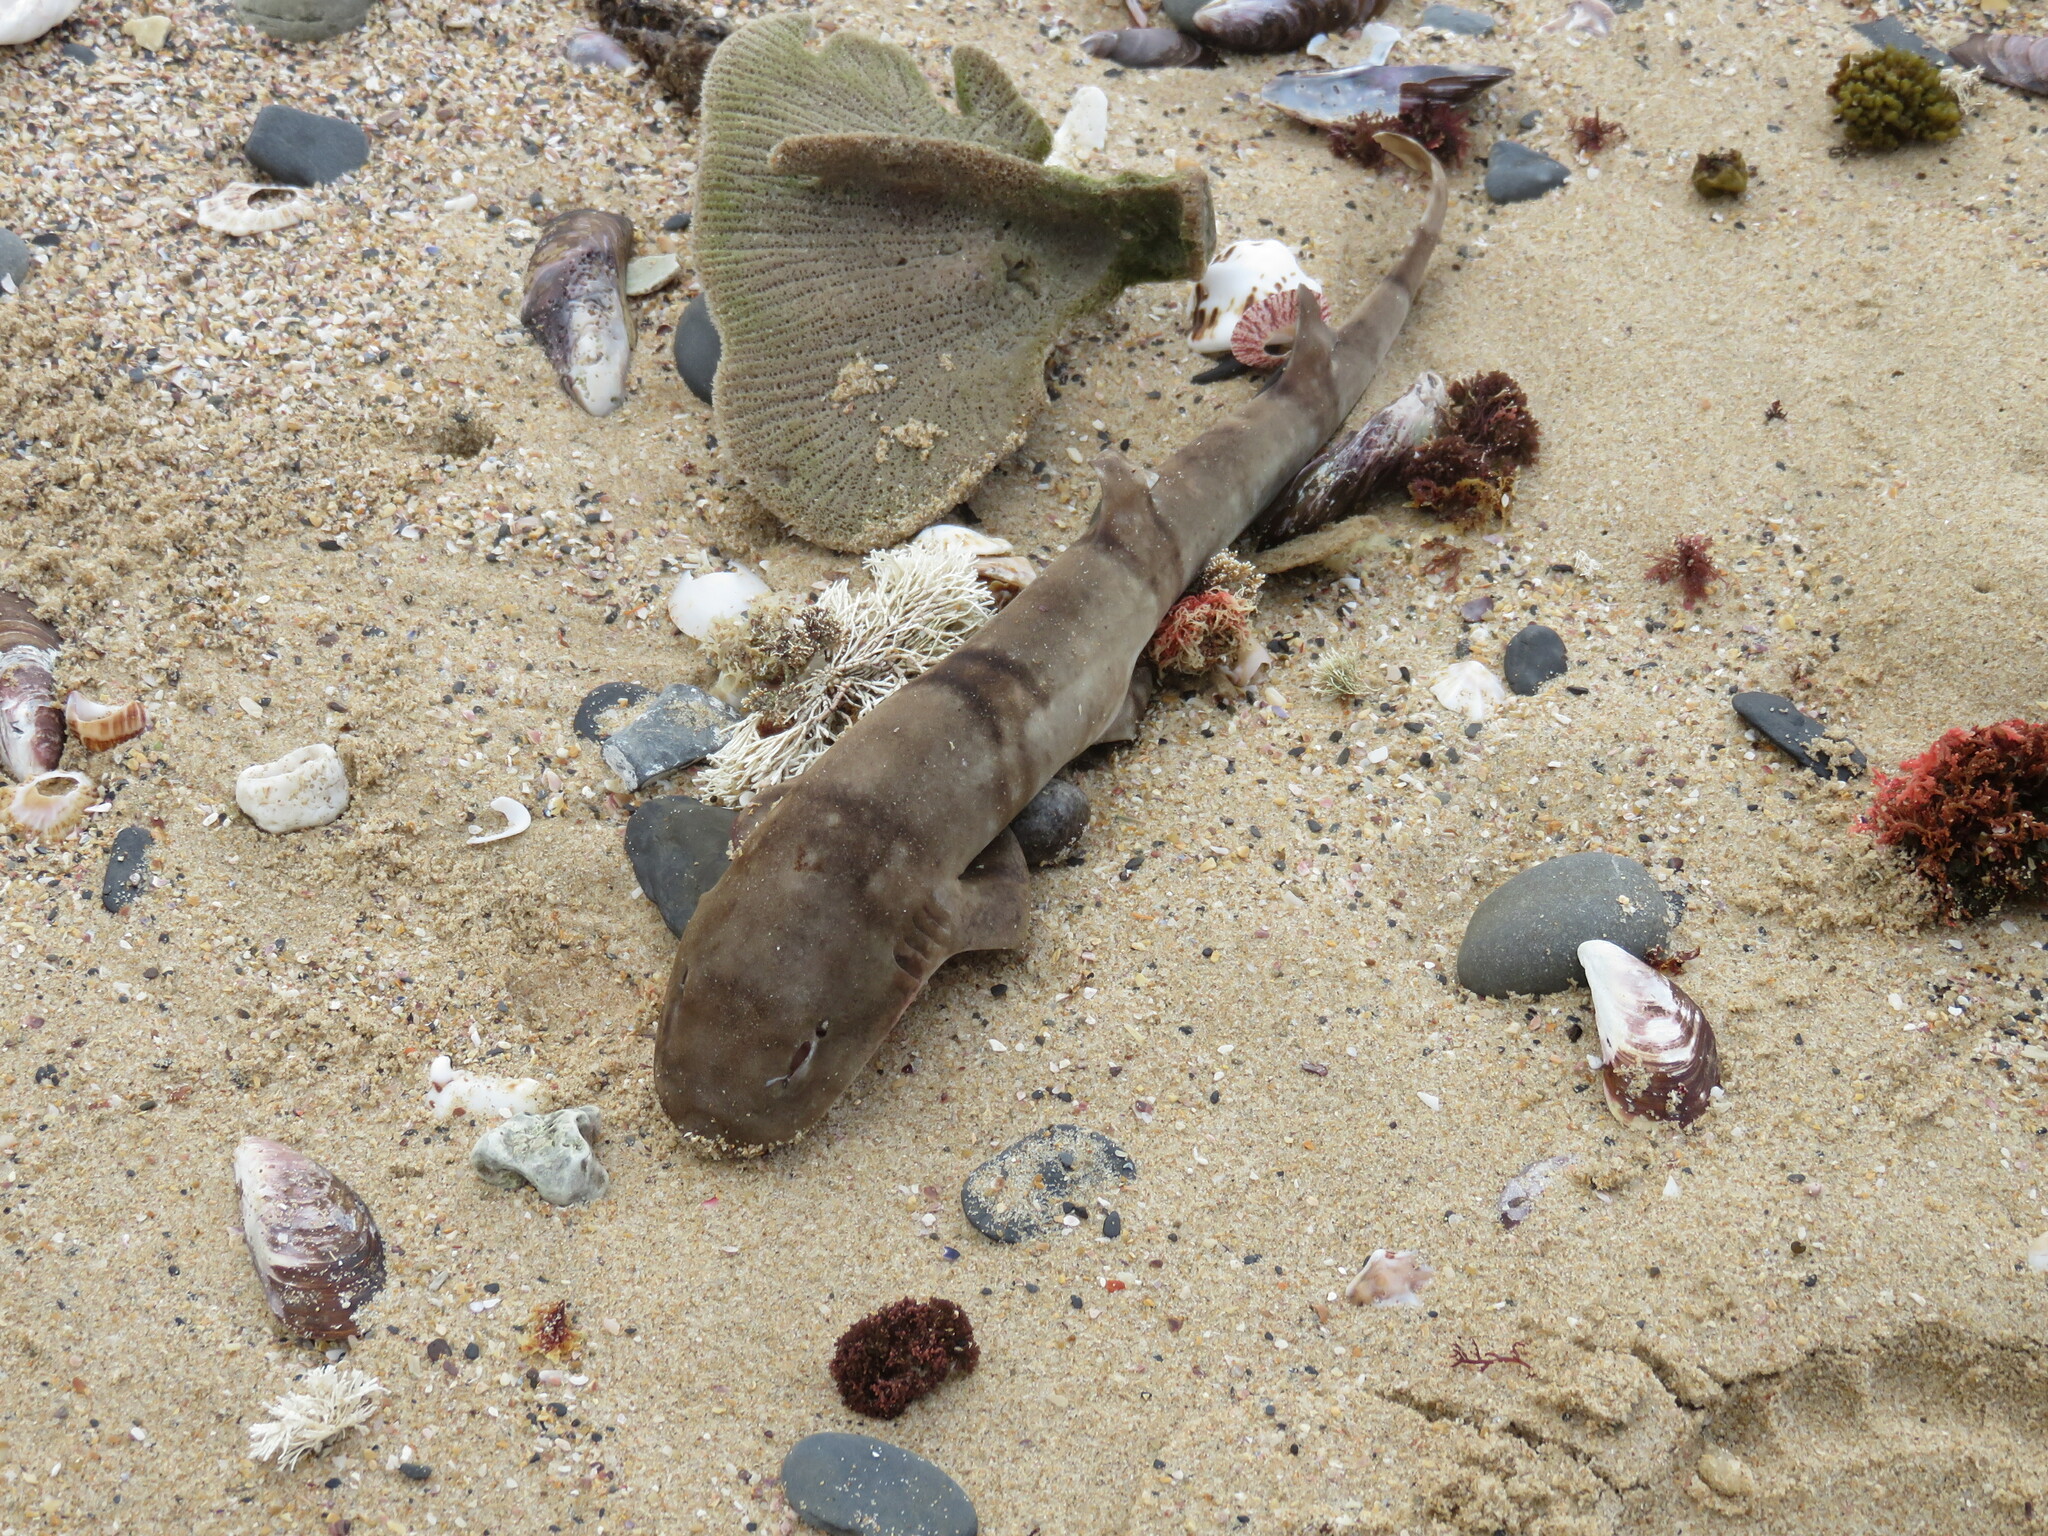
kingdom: Animalia
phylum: Chordata
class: Elasmobranchii
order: Carcharhiniformes
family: Scyliorhinidae
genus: Haploblepharus
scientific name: Haploblepharus edwardsii
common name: Puffadder shyshark
